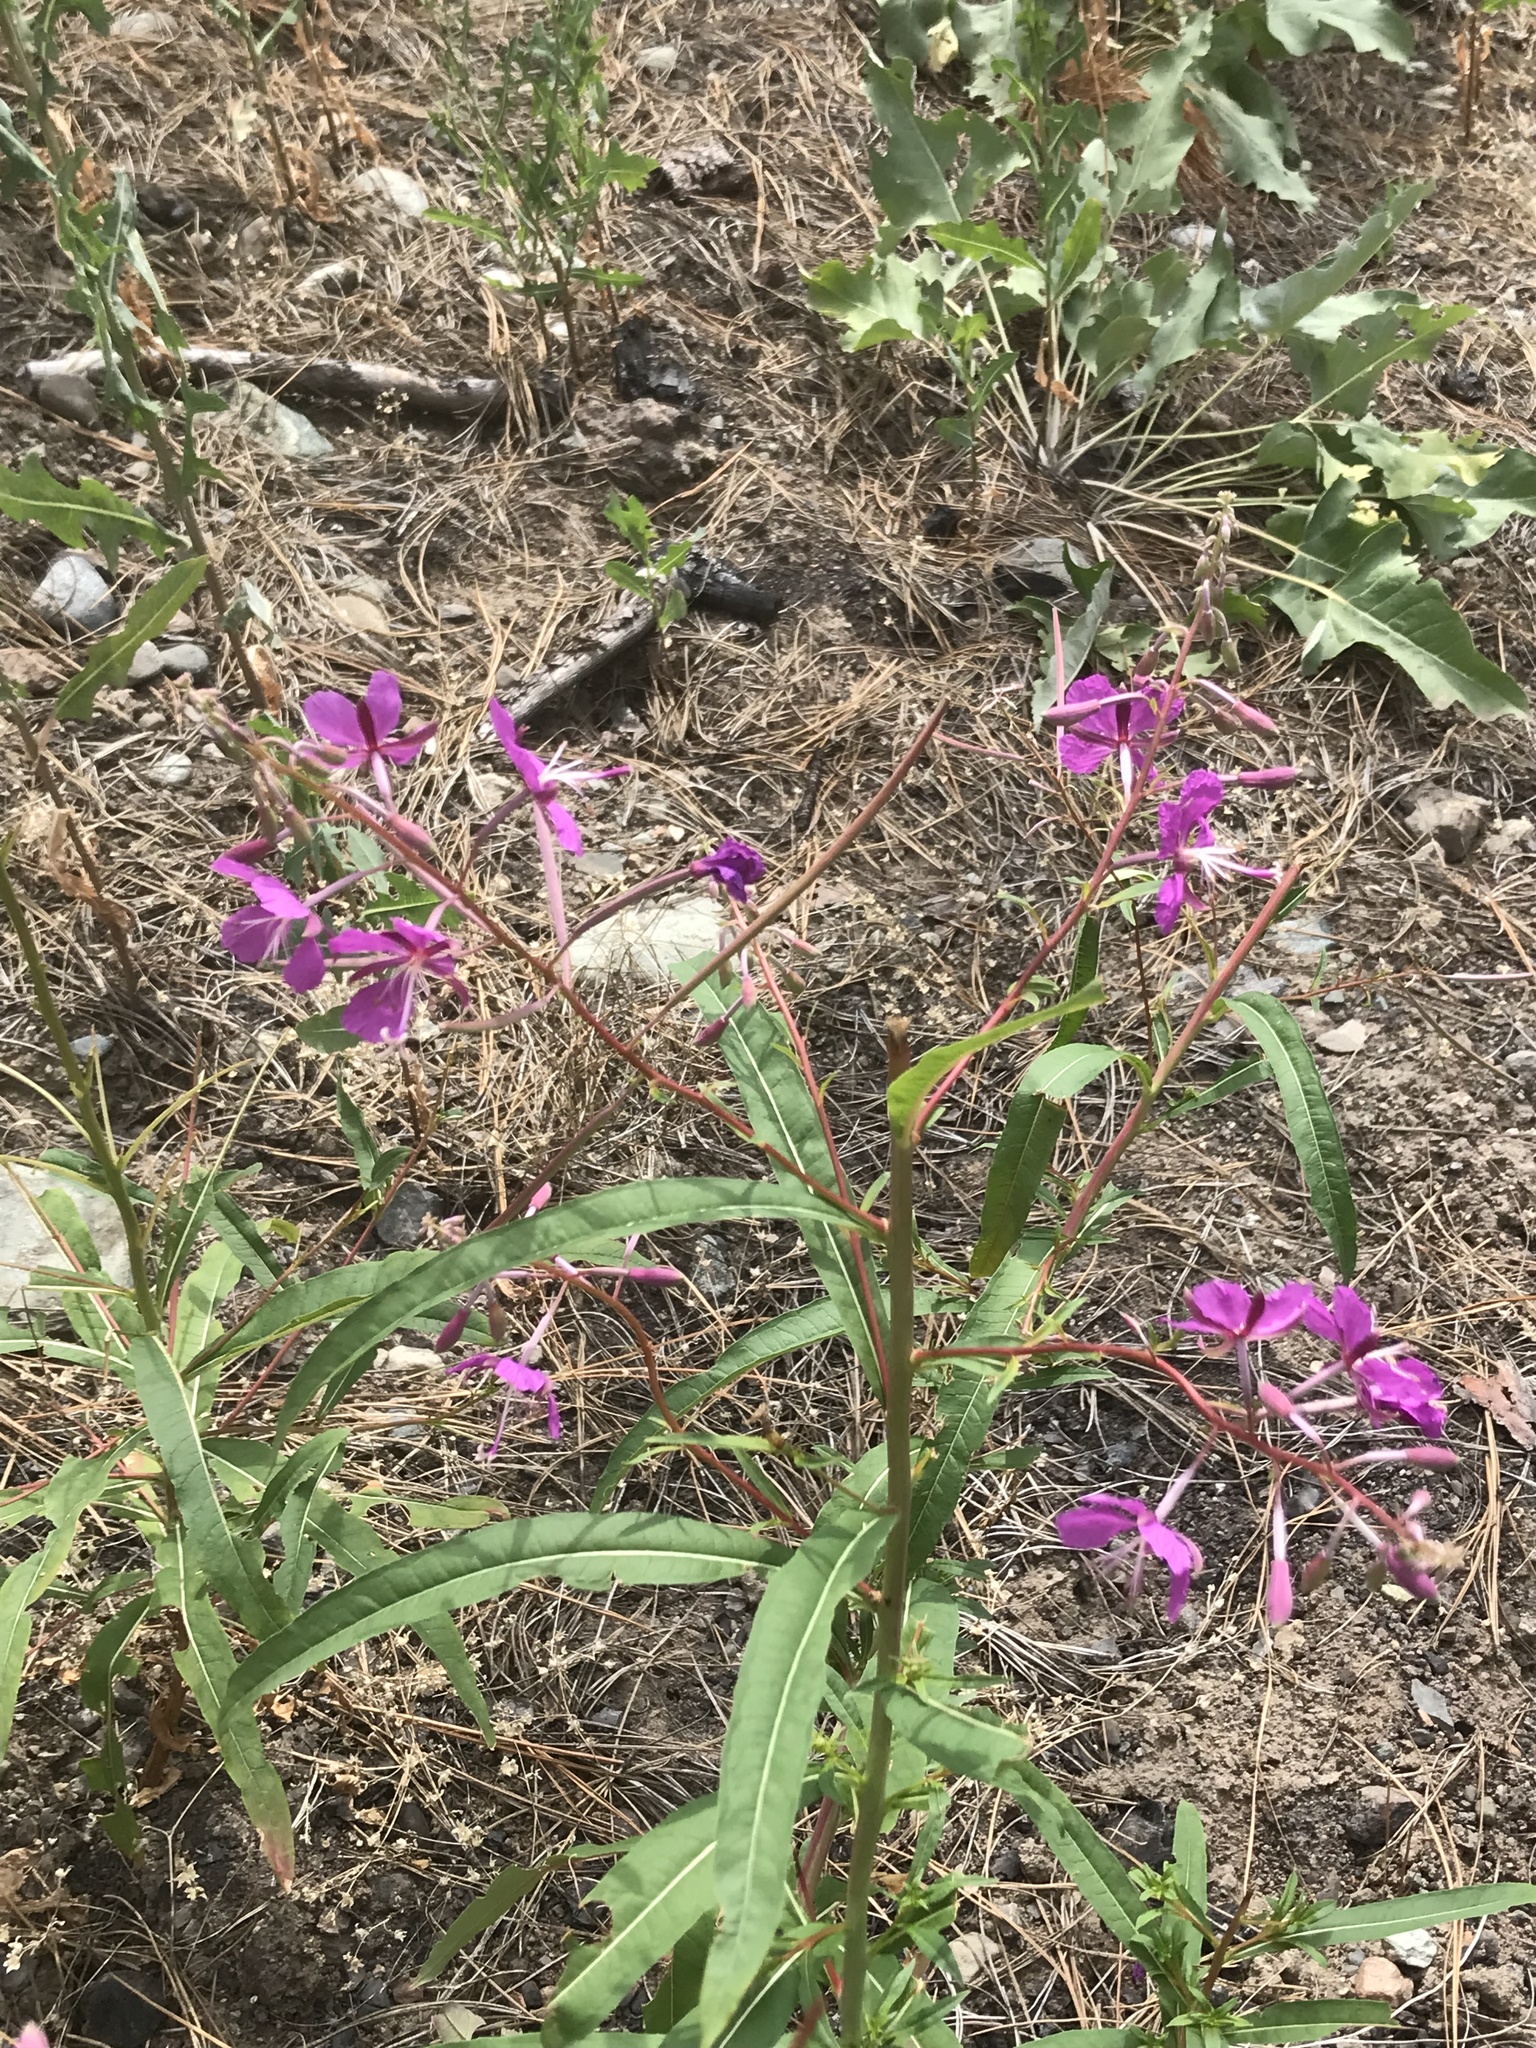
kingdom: Plantae
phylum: Tracheophyta
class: Magnoliopsida
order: Myrtales
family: Onagraceae
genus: Chamaenerion
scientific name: Chamaenerion angustifolium
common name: Fireweed
